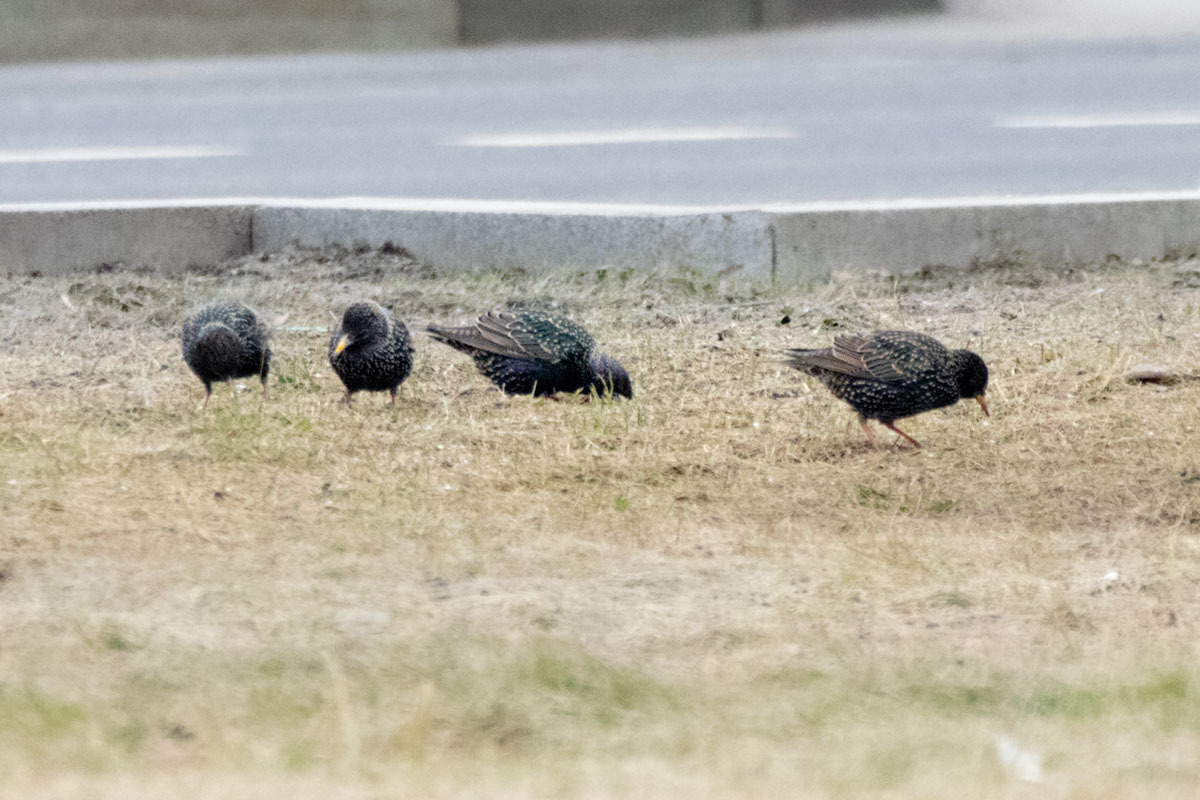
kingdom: Animalia
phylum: Chordata
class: Aves
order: Passeriformes
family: Sturnidae
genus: Sturnus
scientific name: Sturnus vulgaris
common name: Common starling
